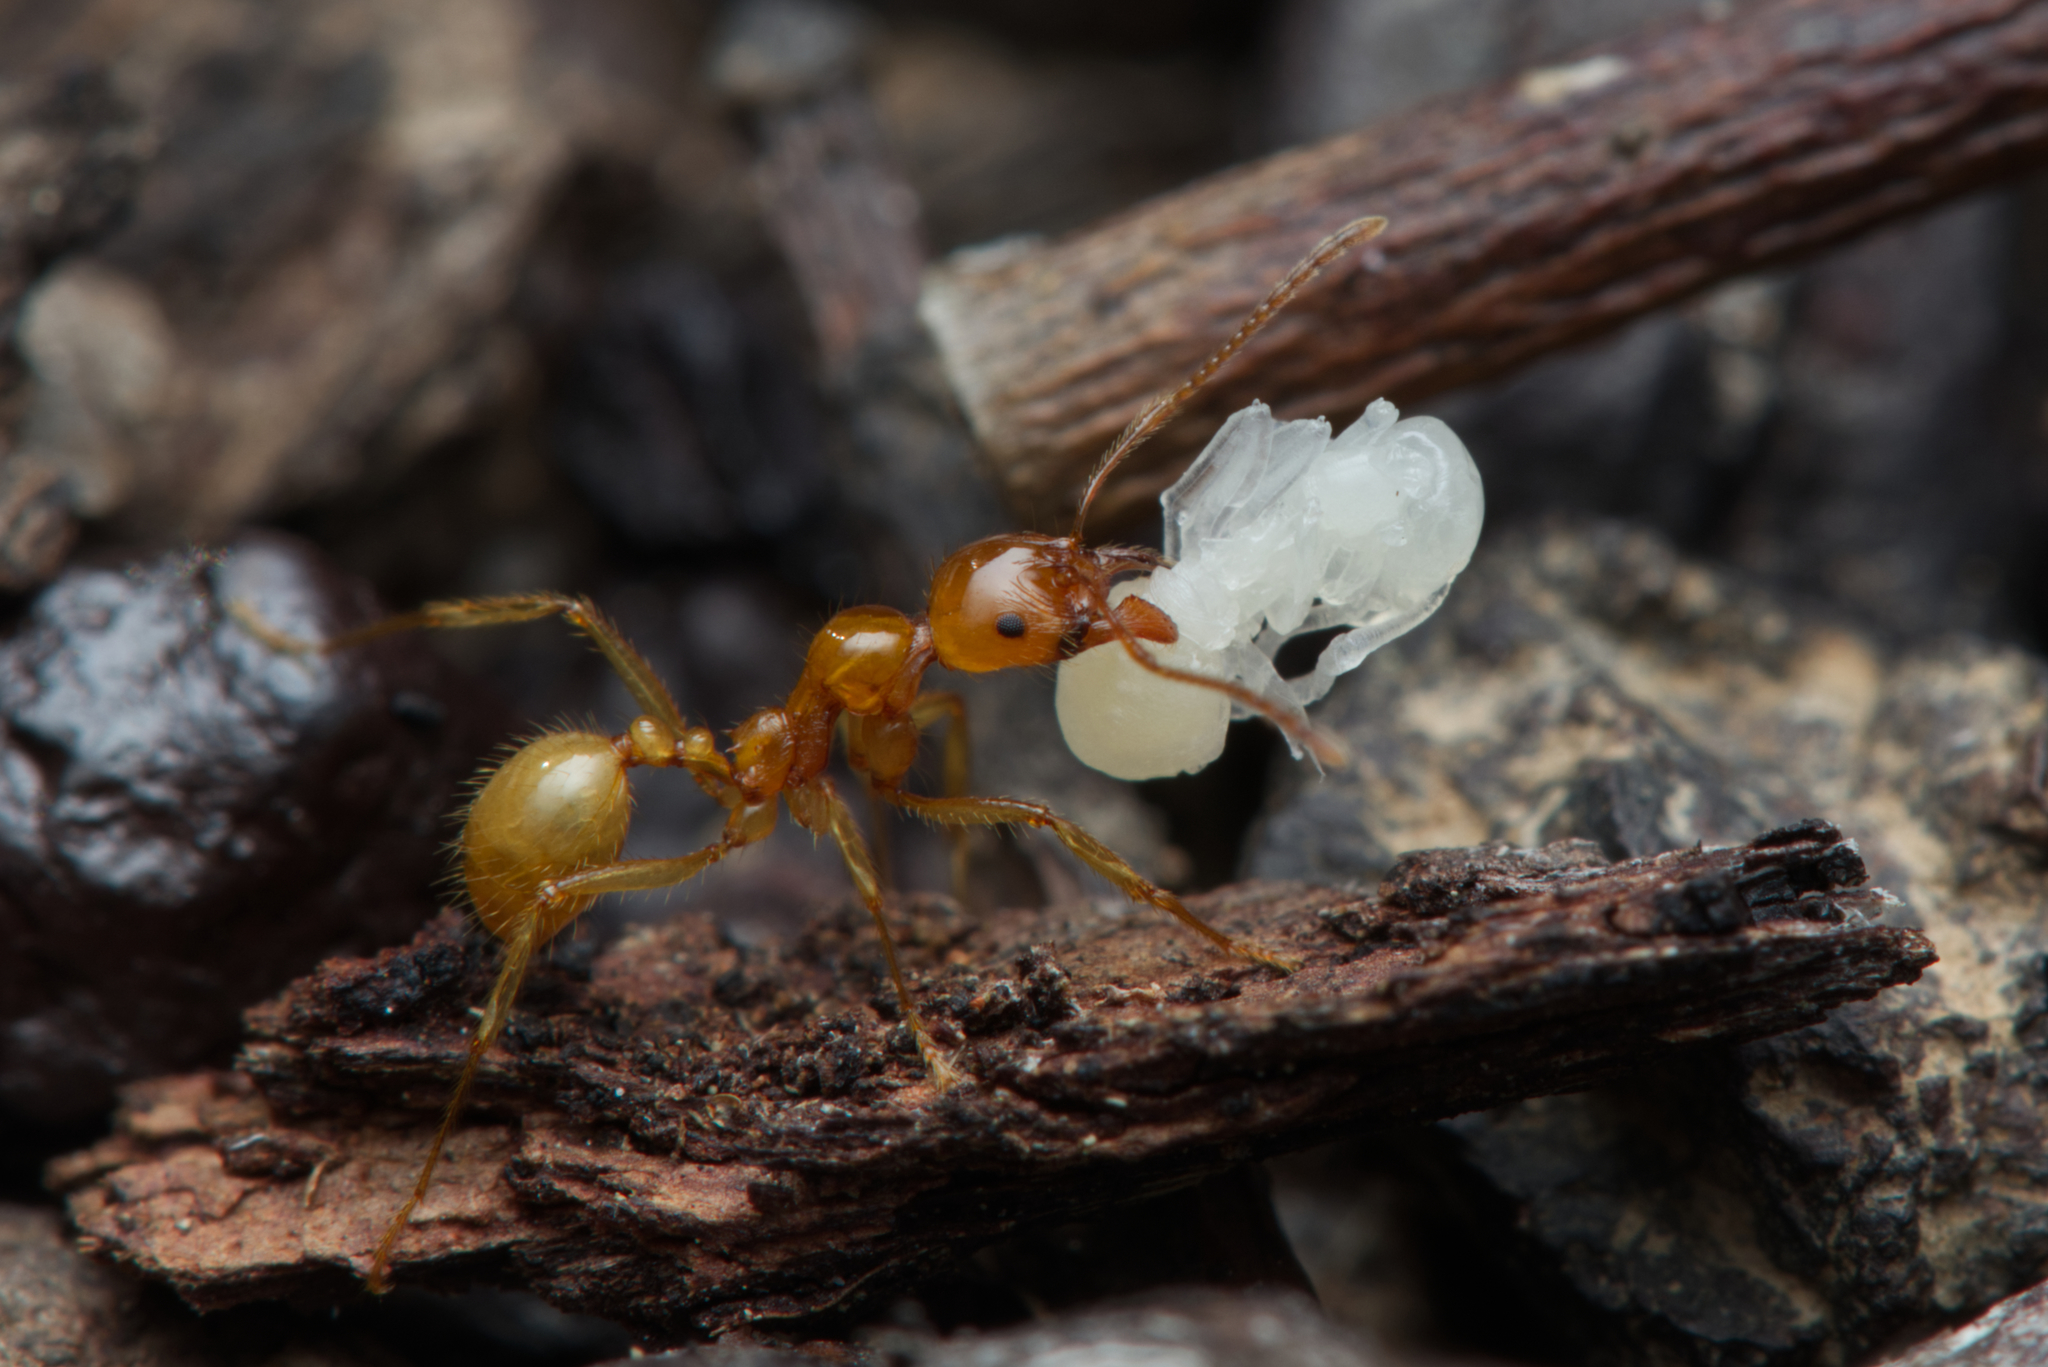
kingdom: Animalia
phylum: Arthropoda
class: Insecta
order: Hymenoptera
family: Formicidae
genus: Aphaenogaster
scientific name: Aphaenogaster pythia
